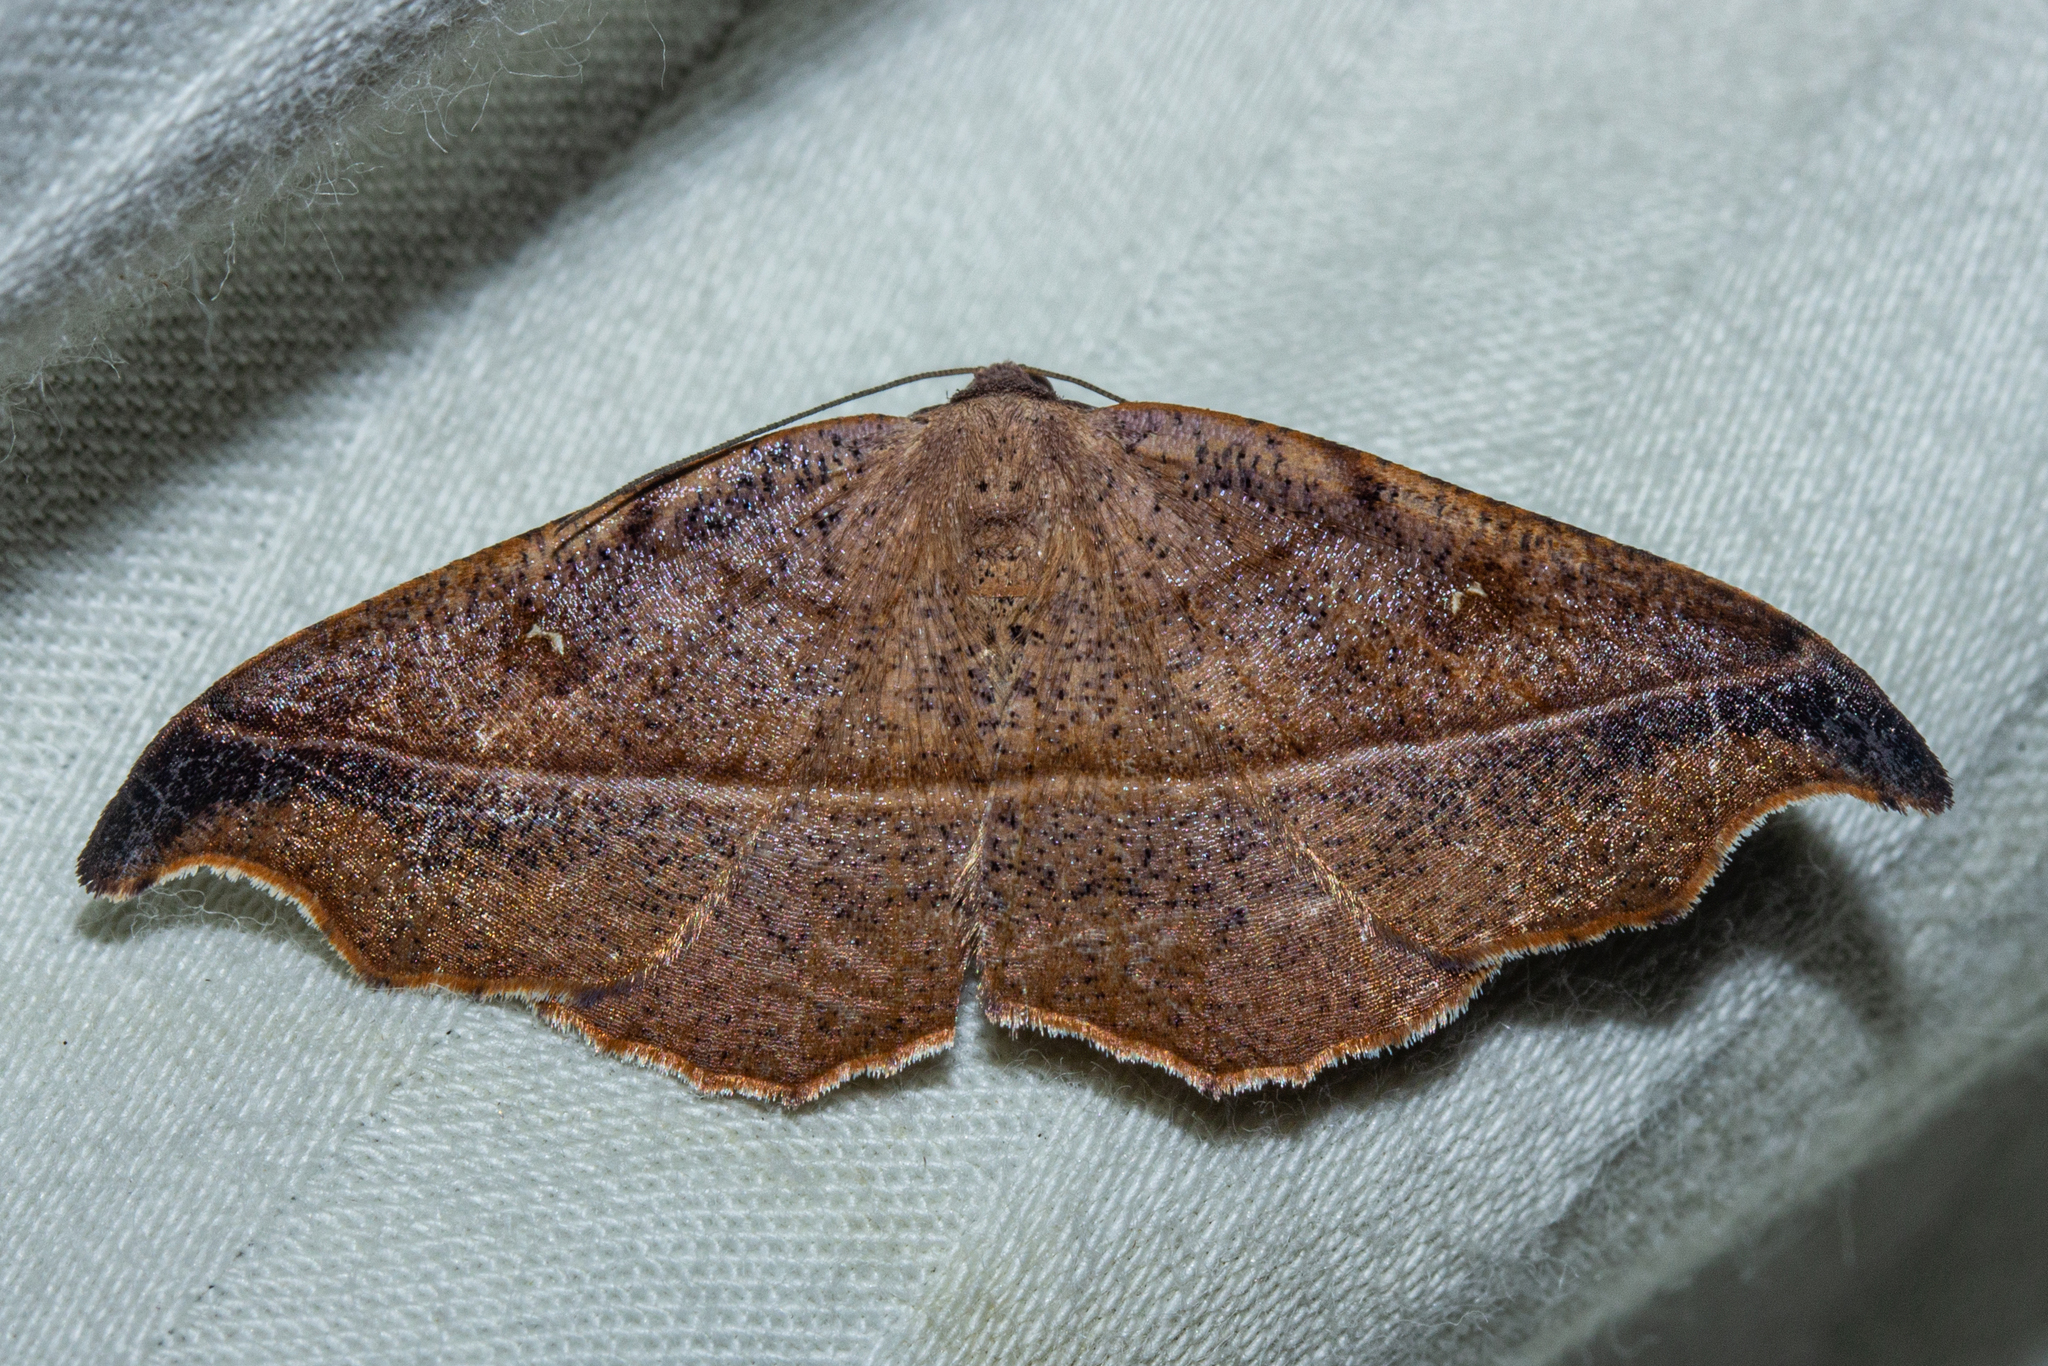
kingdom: Animalia
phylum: Arthropoda
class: Insecta
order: Lepidoptera
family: Geometridae
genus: Sarisa
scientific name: Sarisa muriferata
